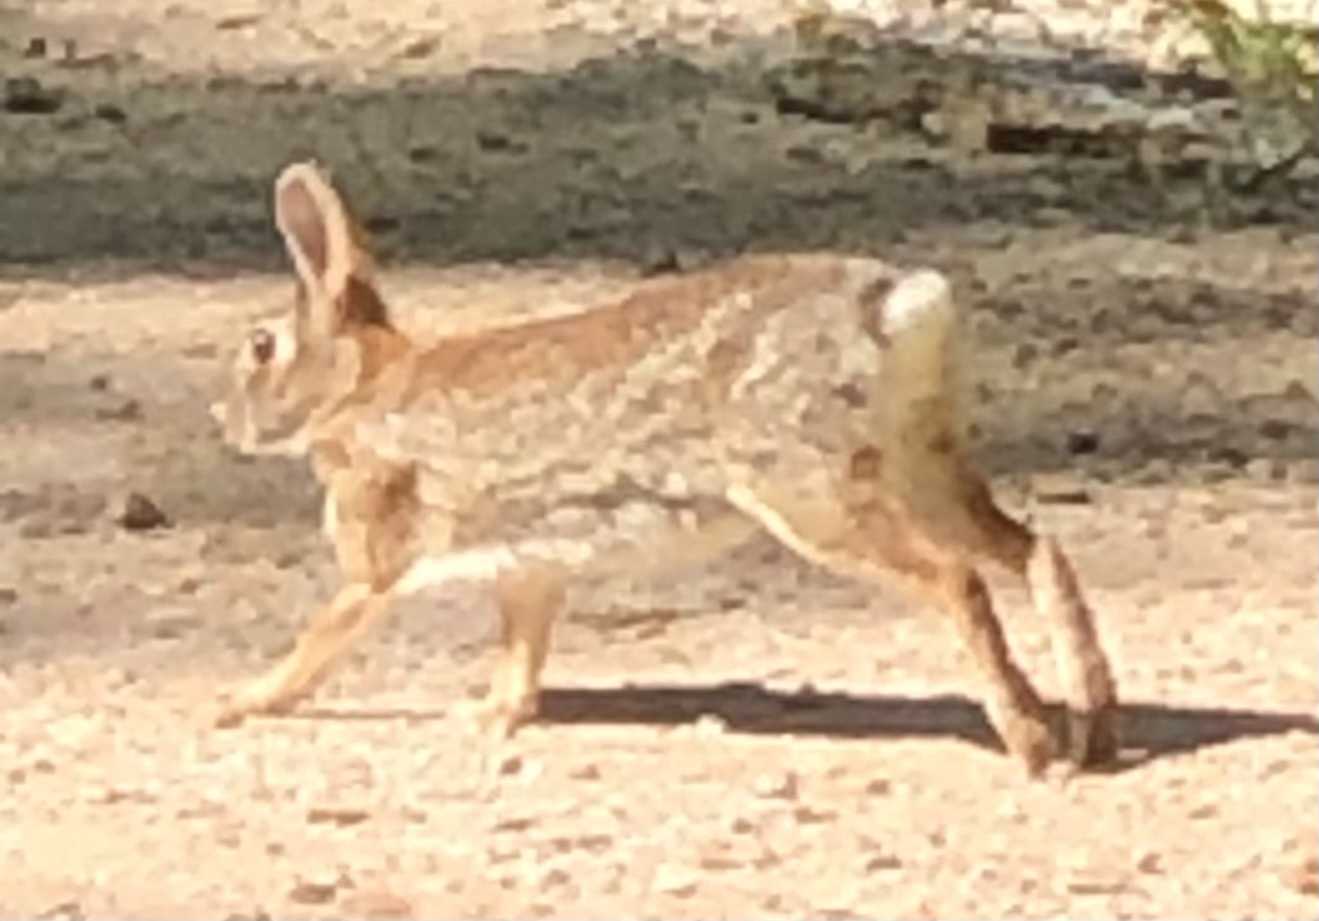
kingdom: Animalia
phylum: Chordata
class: Mammalia
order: Lagomorpha
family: Leporidae
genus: Sylvilagus
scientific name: Sylvilagus floridanus
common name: Eastern cottontail
